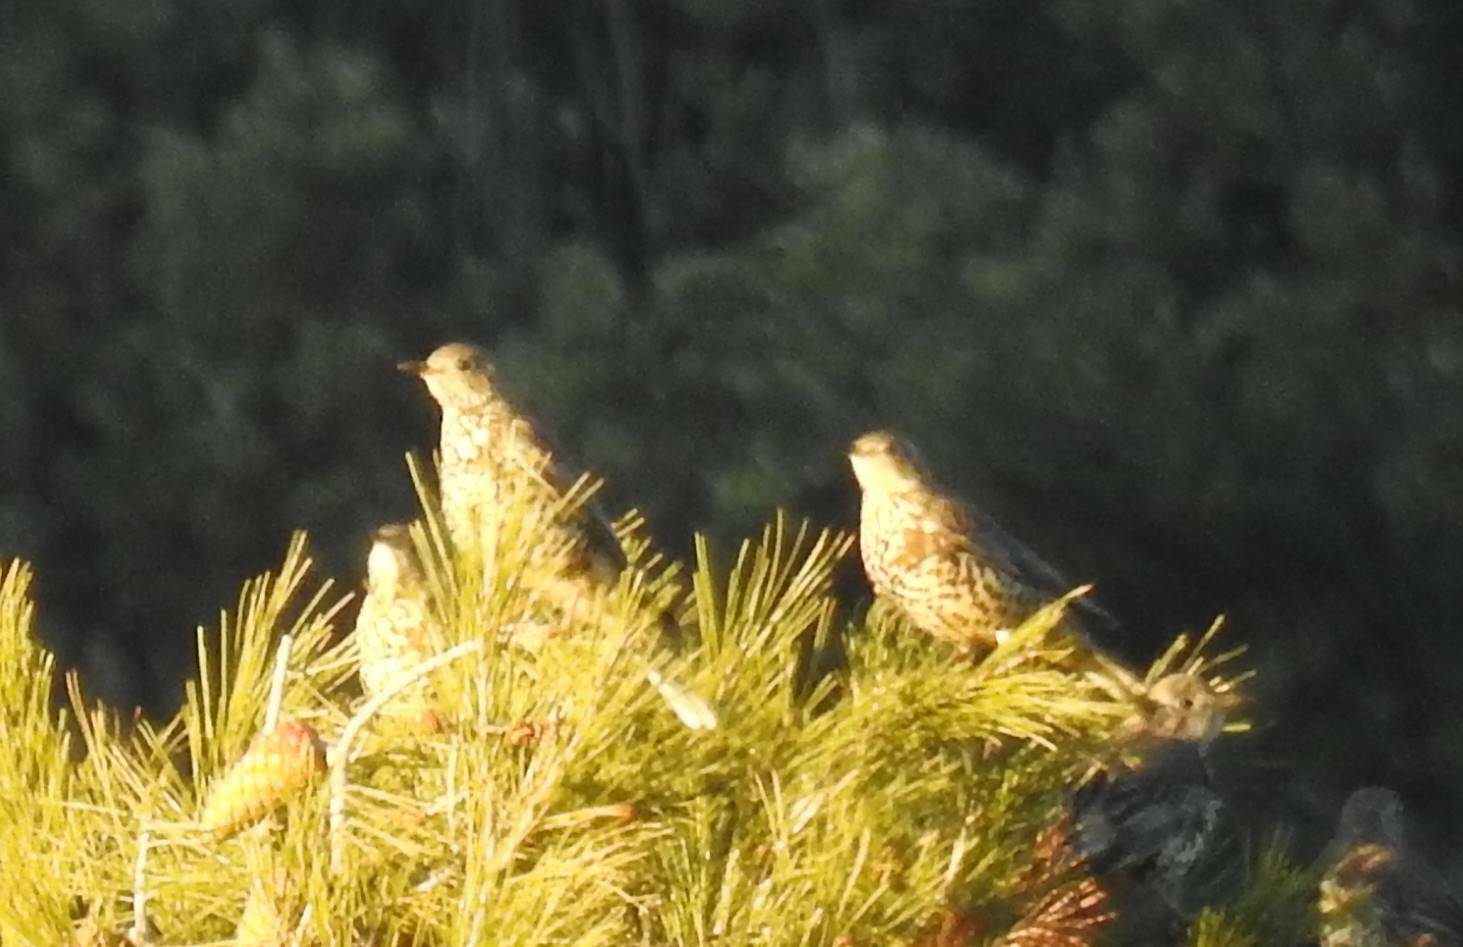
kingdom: Animalia
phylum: Chordata
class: Aves
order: Passeriformes
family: Turdidae
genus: Turdus
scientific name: Turdus viscivorus
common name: Mistle thrush
